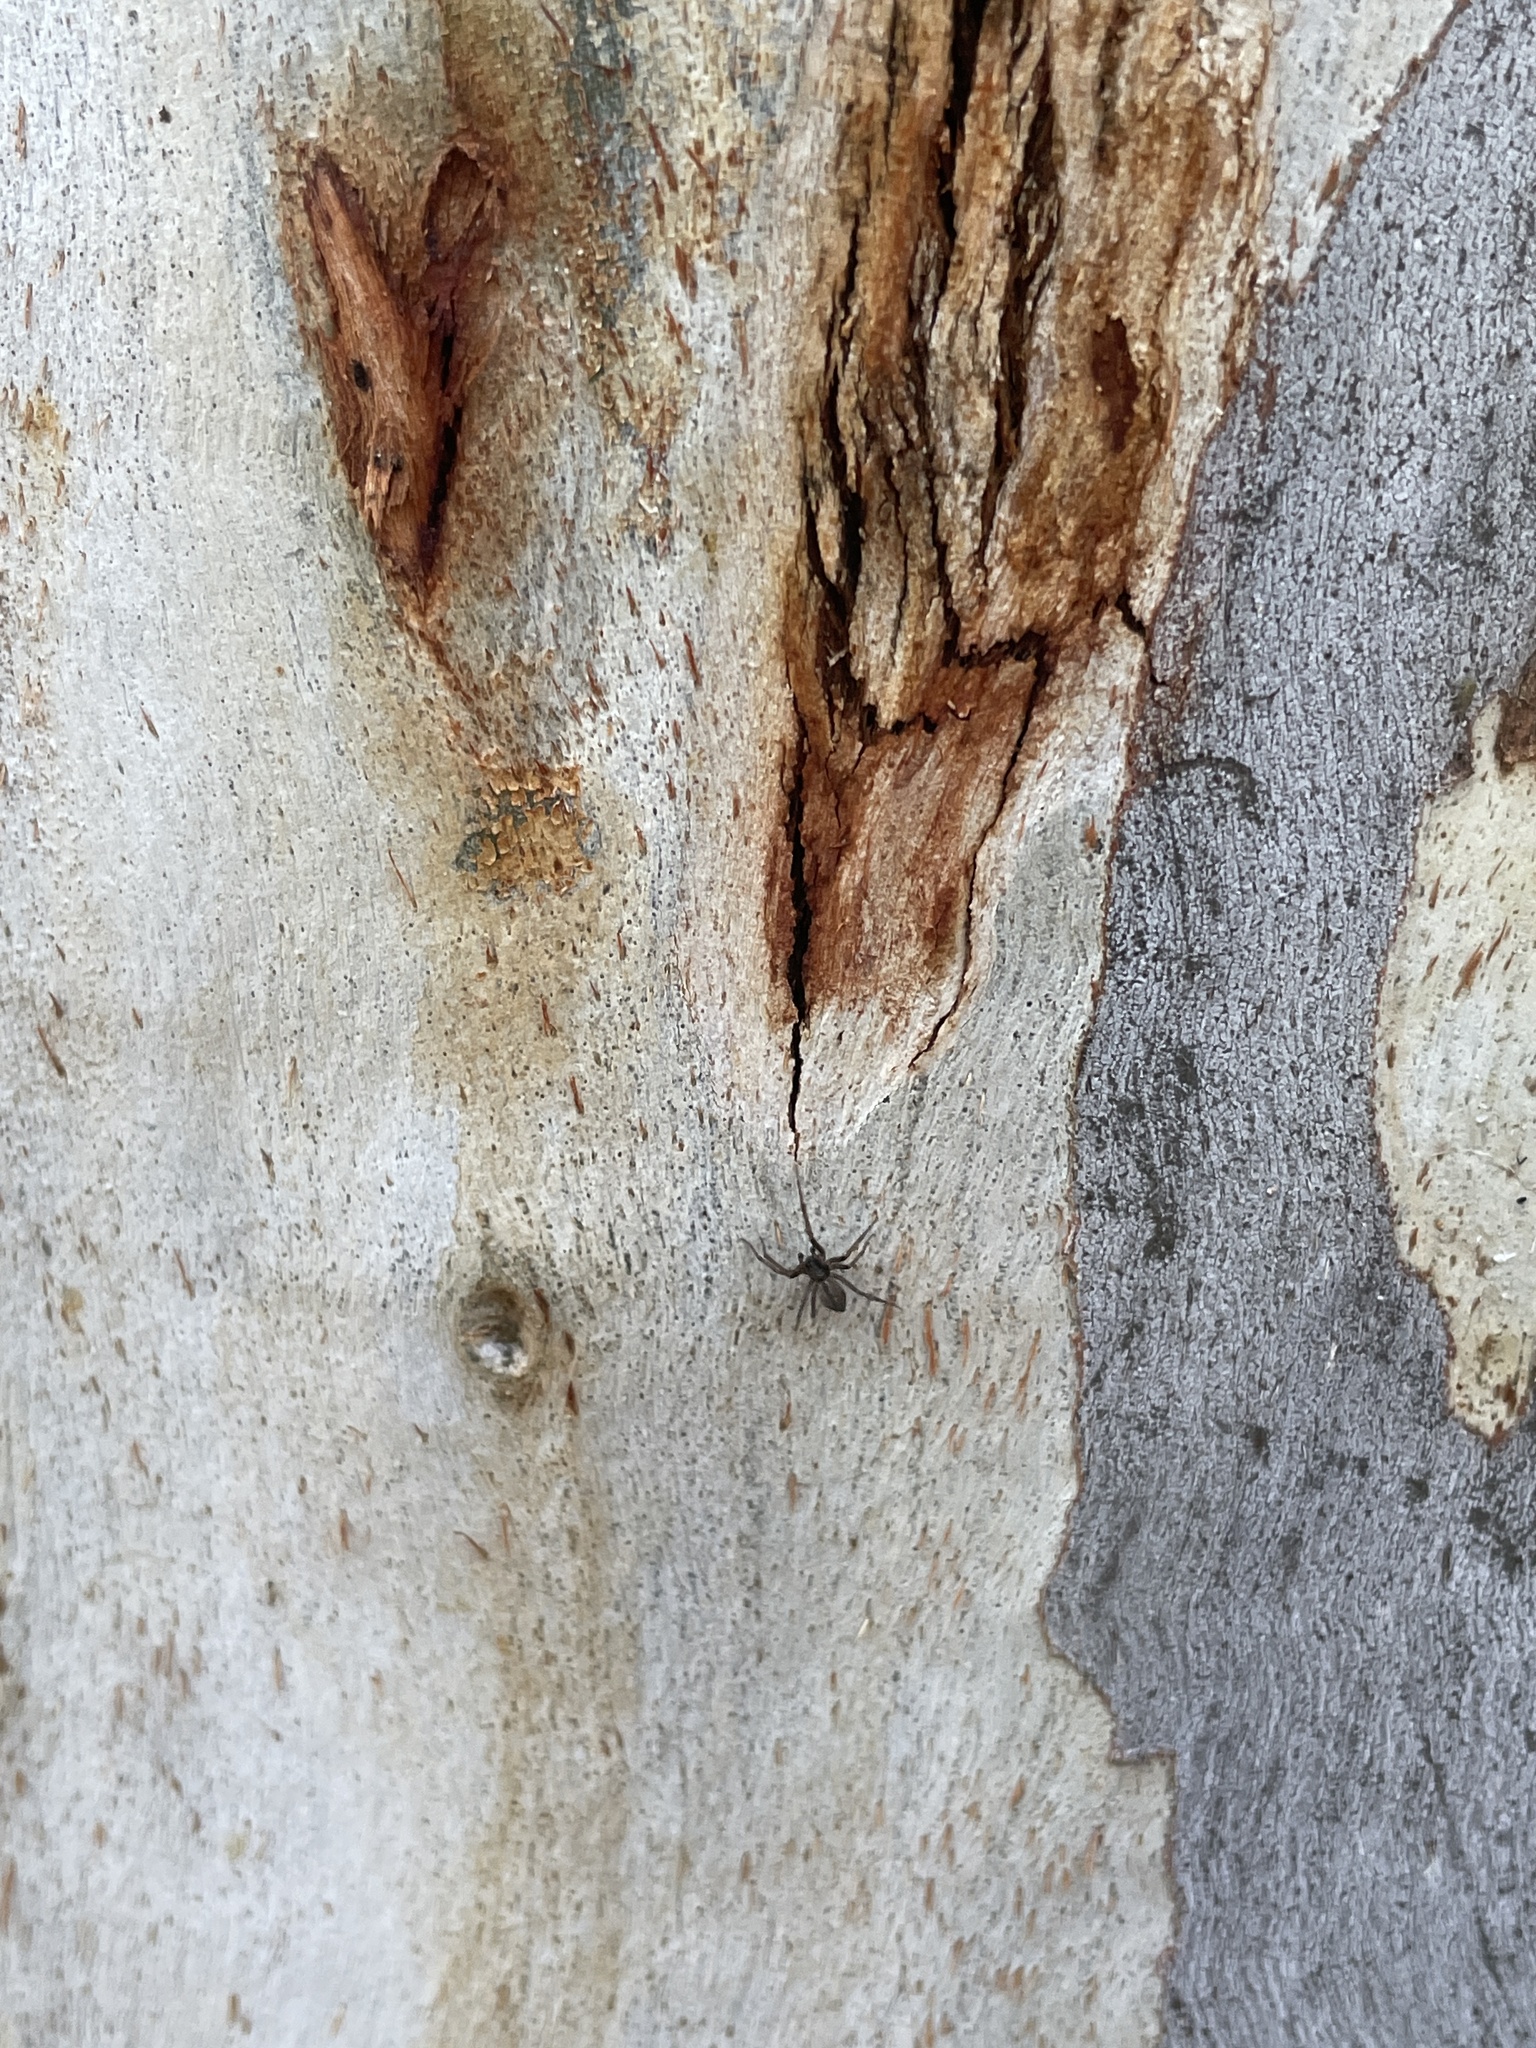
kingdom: Animalia
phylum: Arthropoda
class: Arachnida
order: Araneae
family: Desidae
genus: Badumna
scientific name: Badumna insignis
